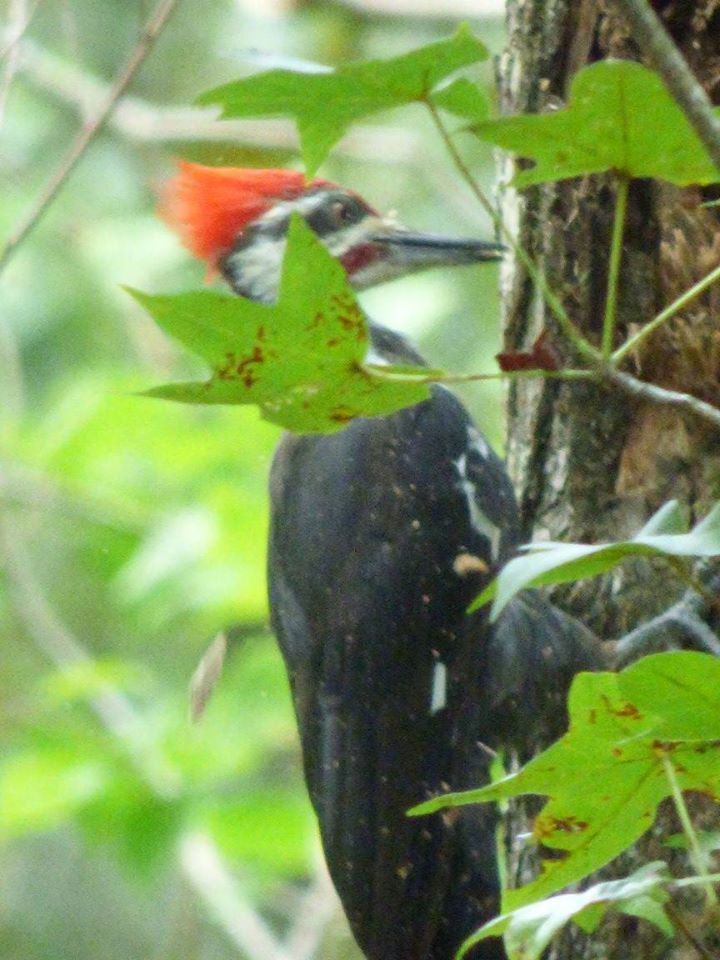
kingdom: Animalia
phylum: Chordata
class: Aves
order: Piciformes
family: Picidae
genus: Dryocopus
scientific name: Dryocopus pileatus
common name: Pileated woodpecker
